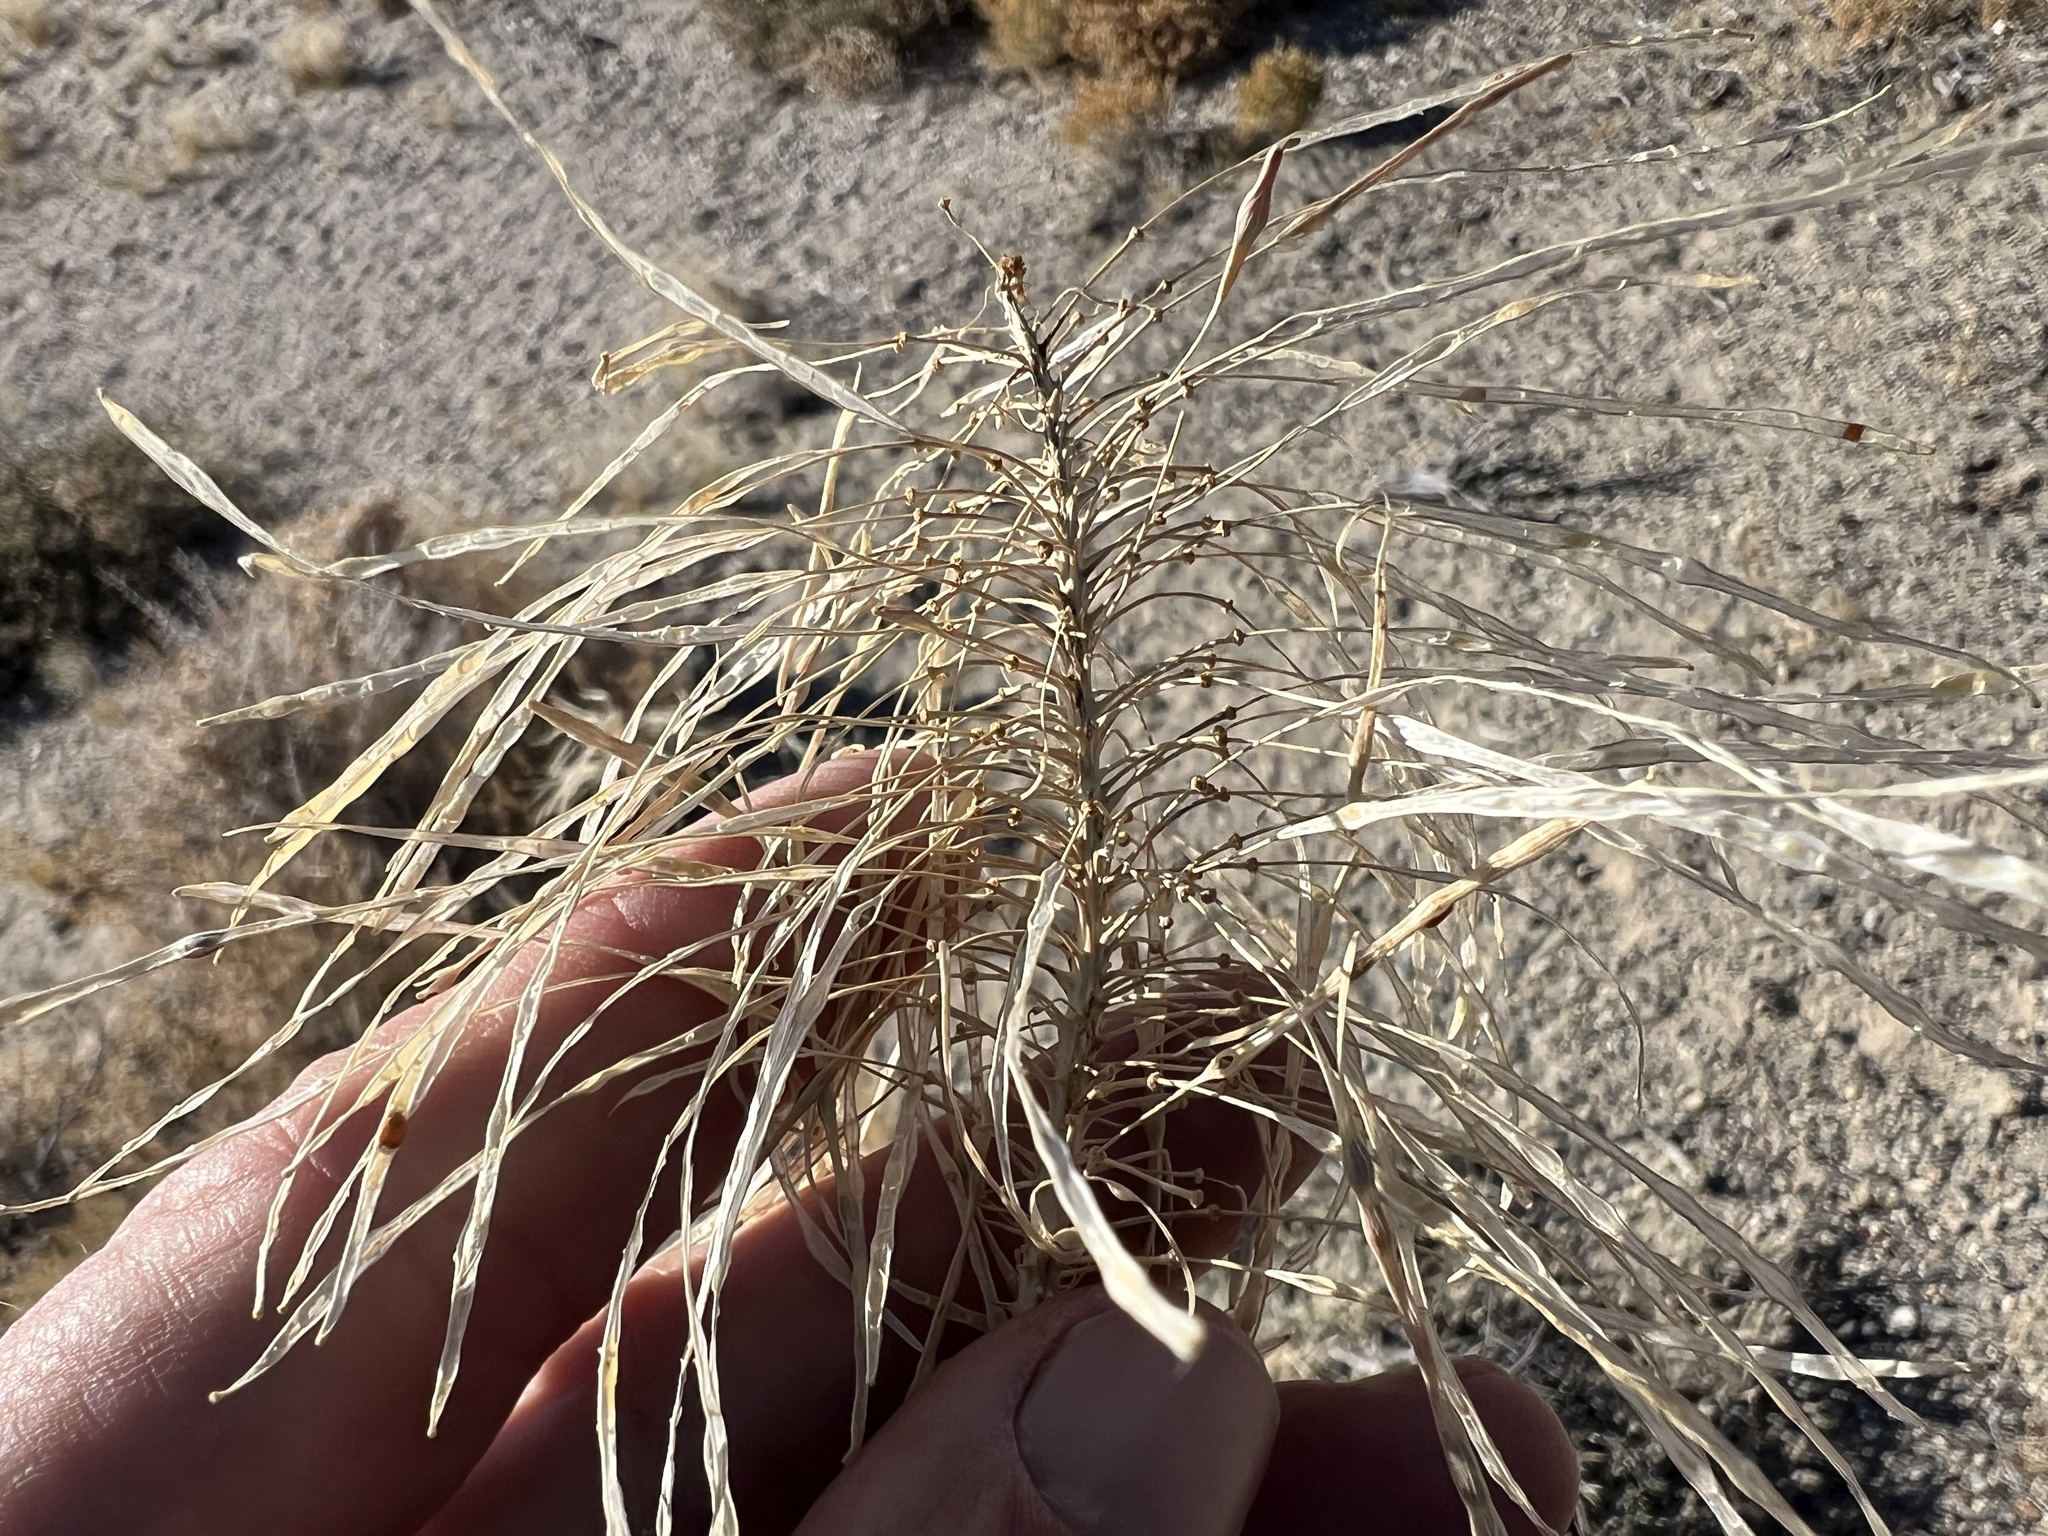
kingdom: Plantae
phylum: Tracheophyta
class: Magnoliopsida
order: Brassicales
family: Brassicaceae
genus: Stanleya
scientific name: Stanleya elata
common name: Panamint prince's plume
